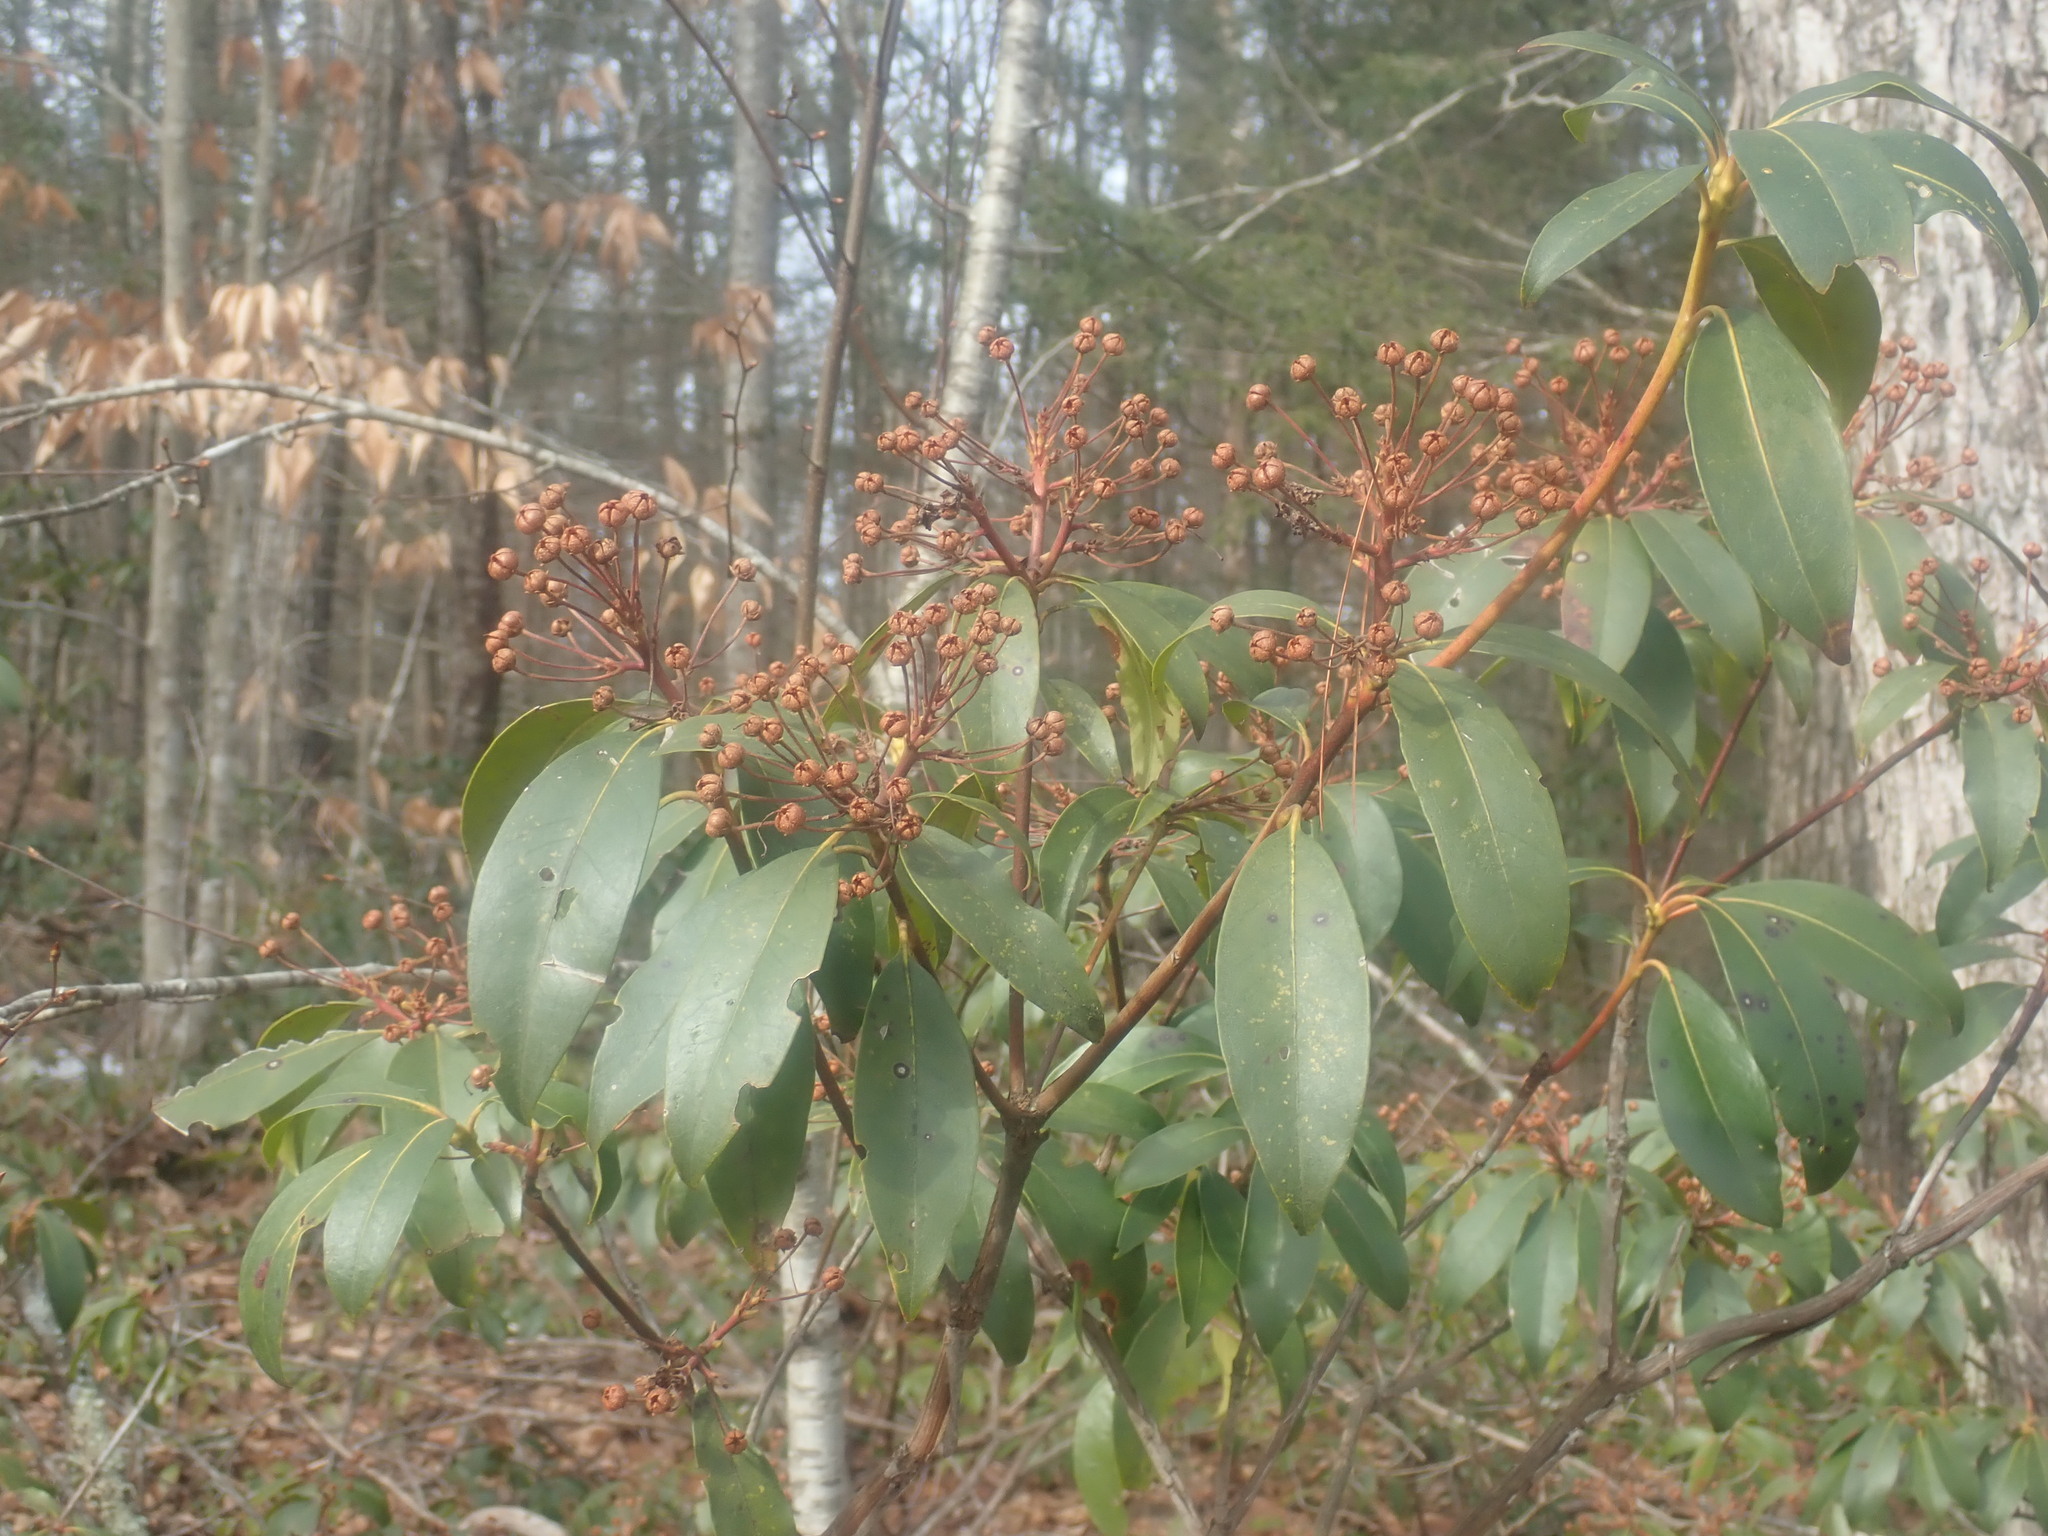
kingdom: Plantae
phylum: Tracheophyta
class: Magnoliopsida
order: Ericales
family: Ericaceae
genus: Kalmia
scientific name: Kalmia latifolia
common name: Mountain-laurel
